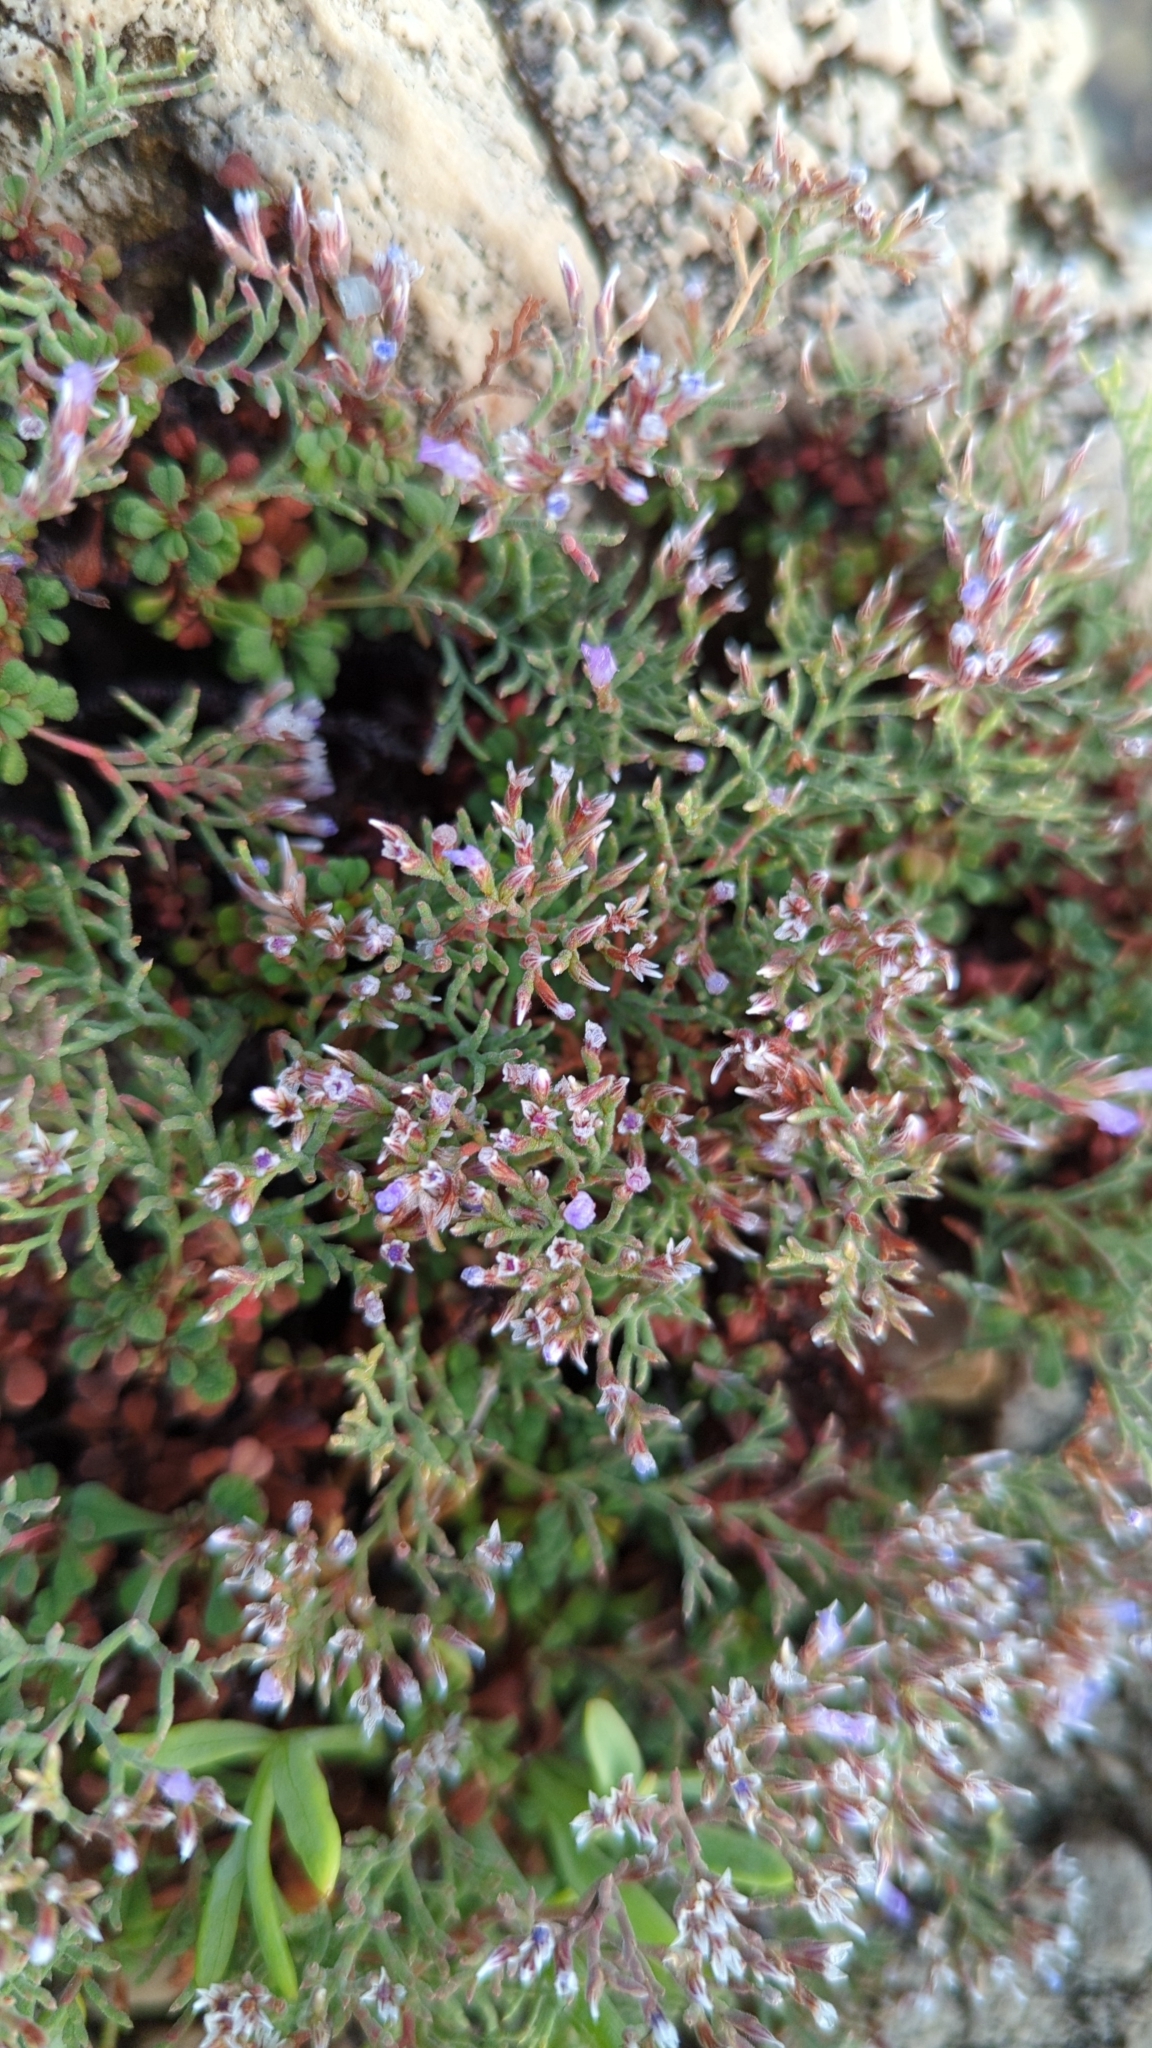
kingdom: Plantae
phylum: Tracheophyta
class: Magnoliopsida
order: Caryophyllales
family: Plumbaginaceae
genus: Limonium
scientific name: Limonium cordatum
